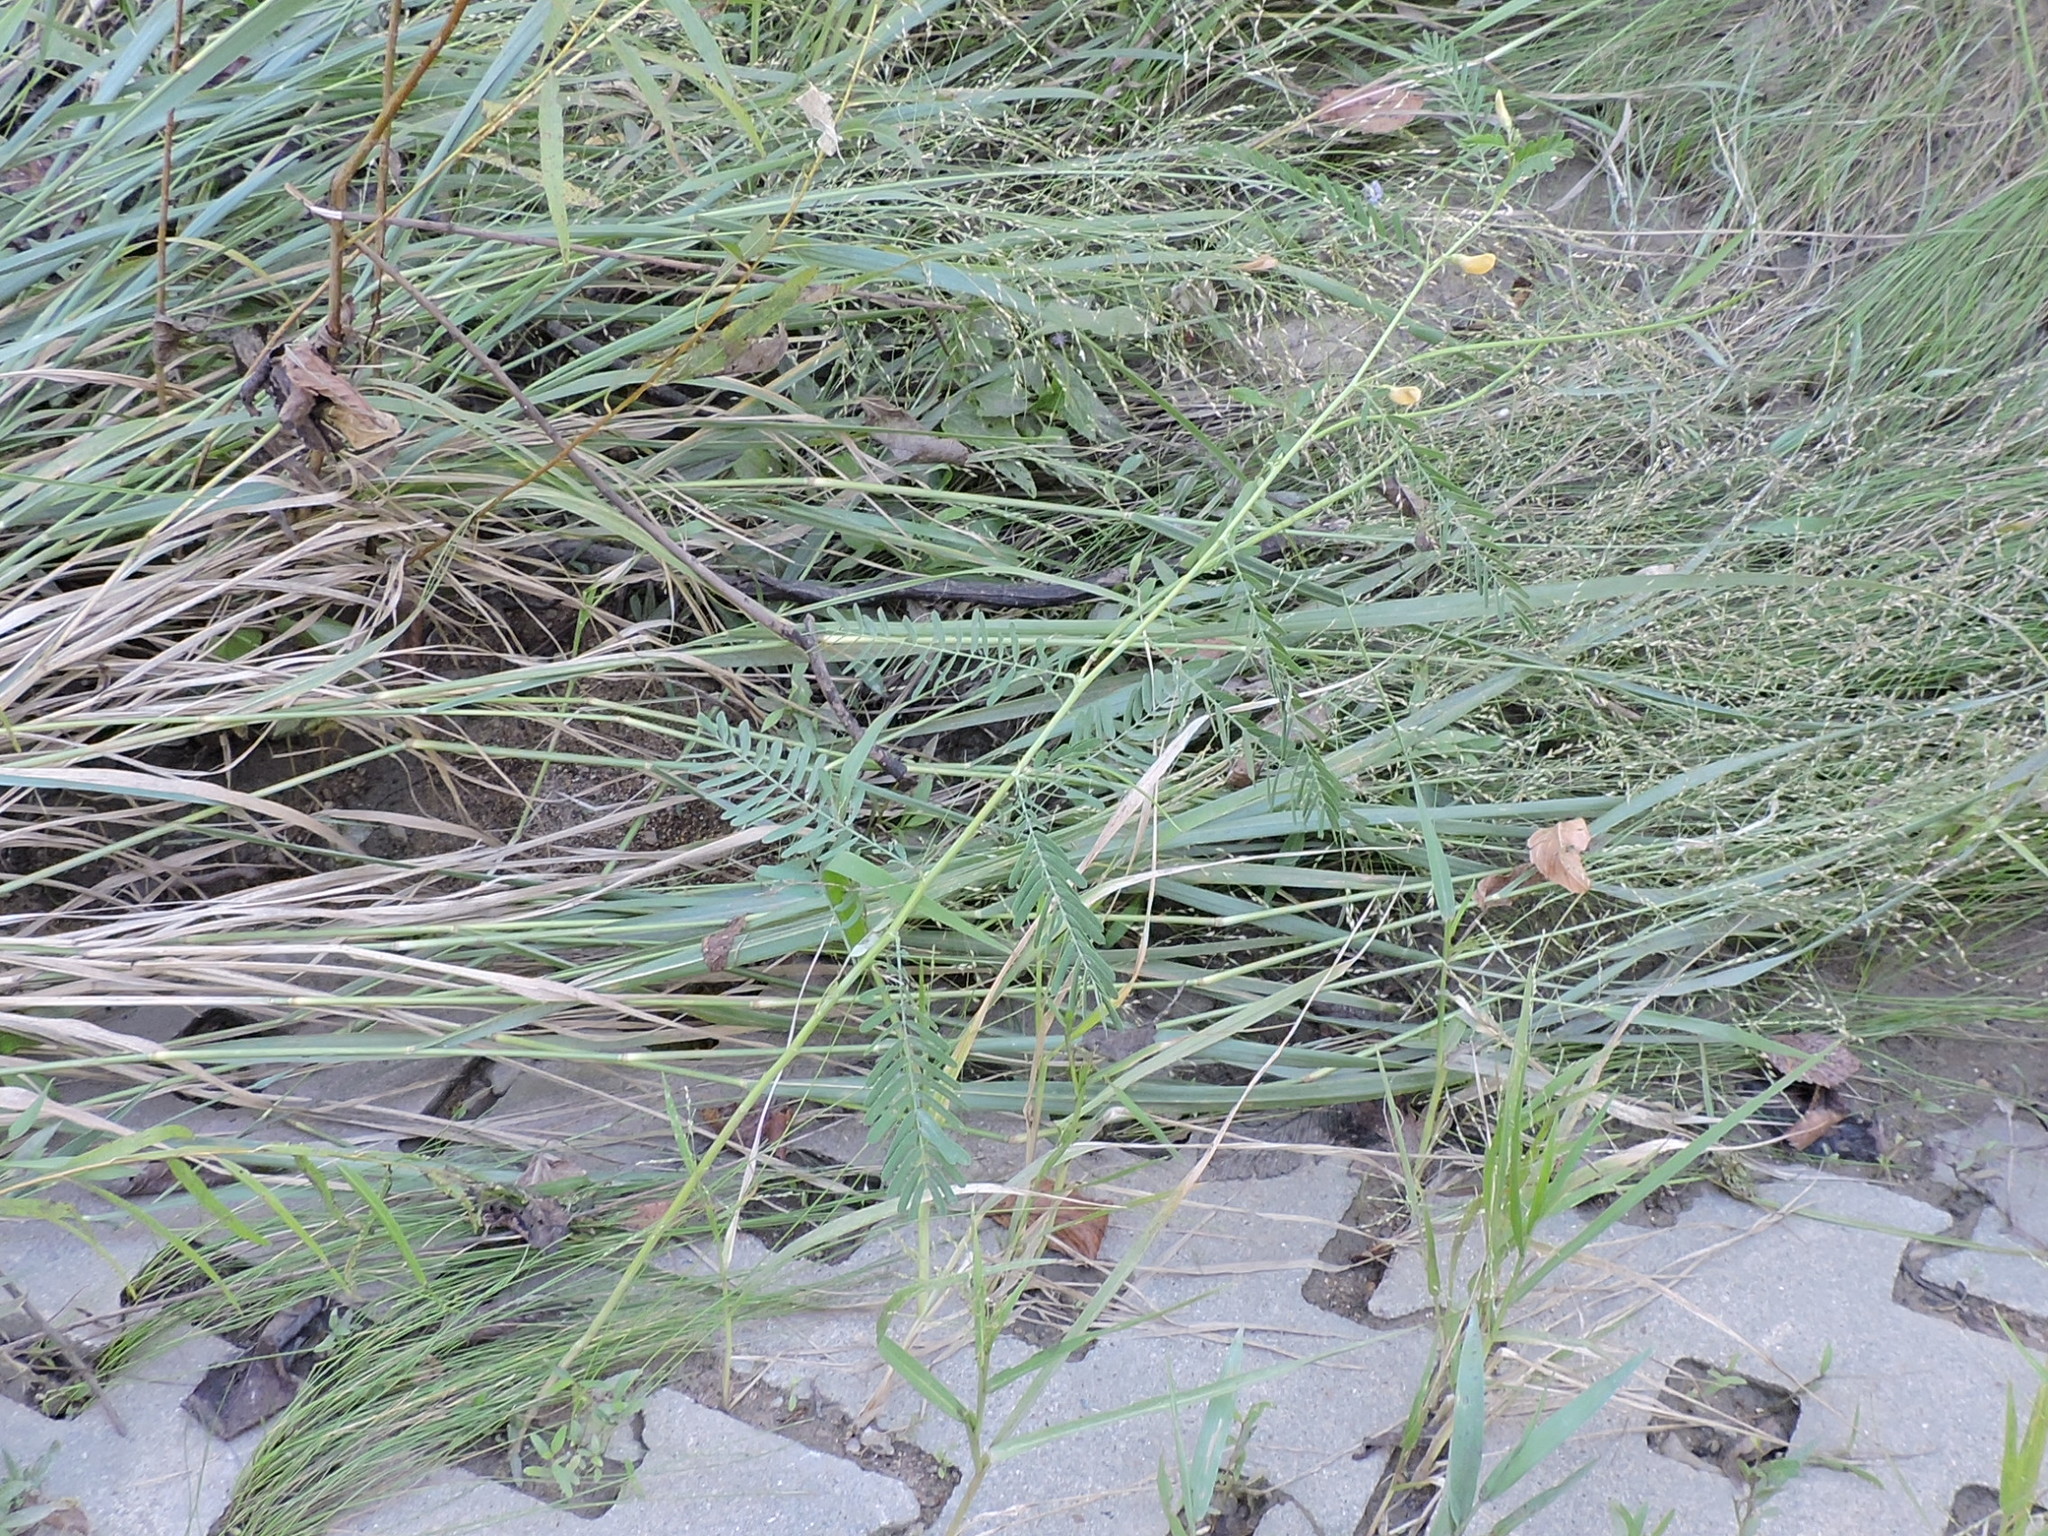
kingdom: Plantae
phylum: Tracheophyta
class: Magnoliopsida
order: Fabales
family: Fabaceae
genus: Sesbania
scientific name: Sesbania herbacea
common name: Bigpod sesbania
